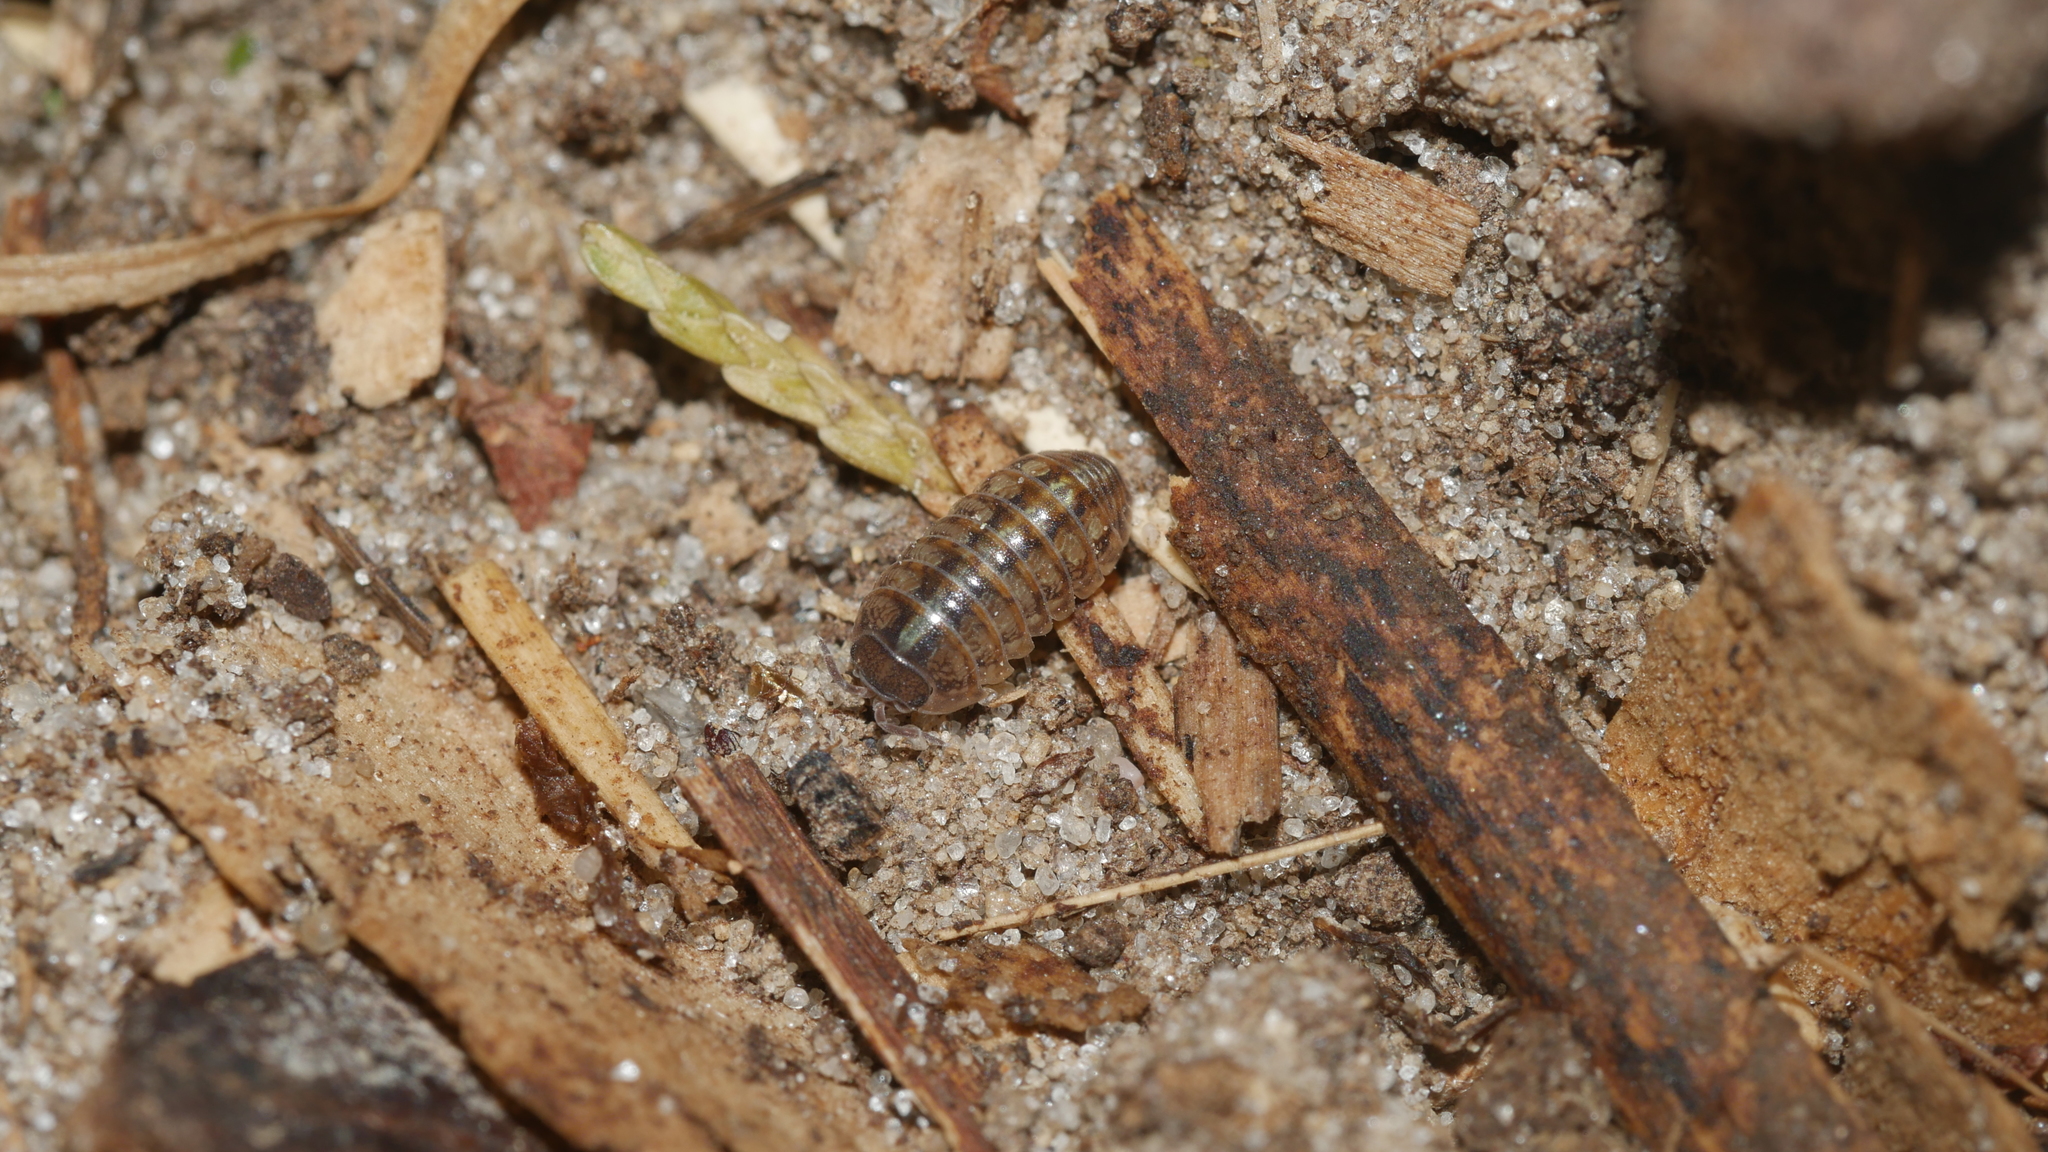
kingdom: Animalia
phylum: Arthropoda
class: Malacostraca
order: Isopoda
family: Armadillidiidae
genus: Armadillidium
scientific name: Armadillidium vulgare
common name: Common pill woodlouse
